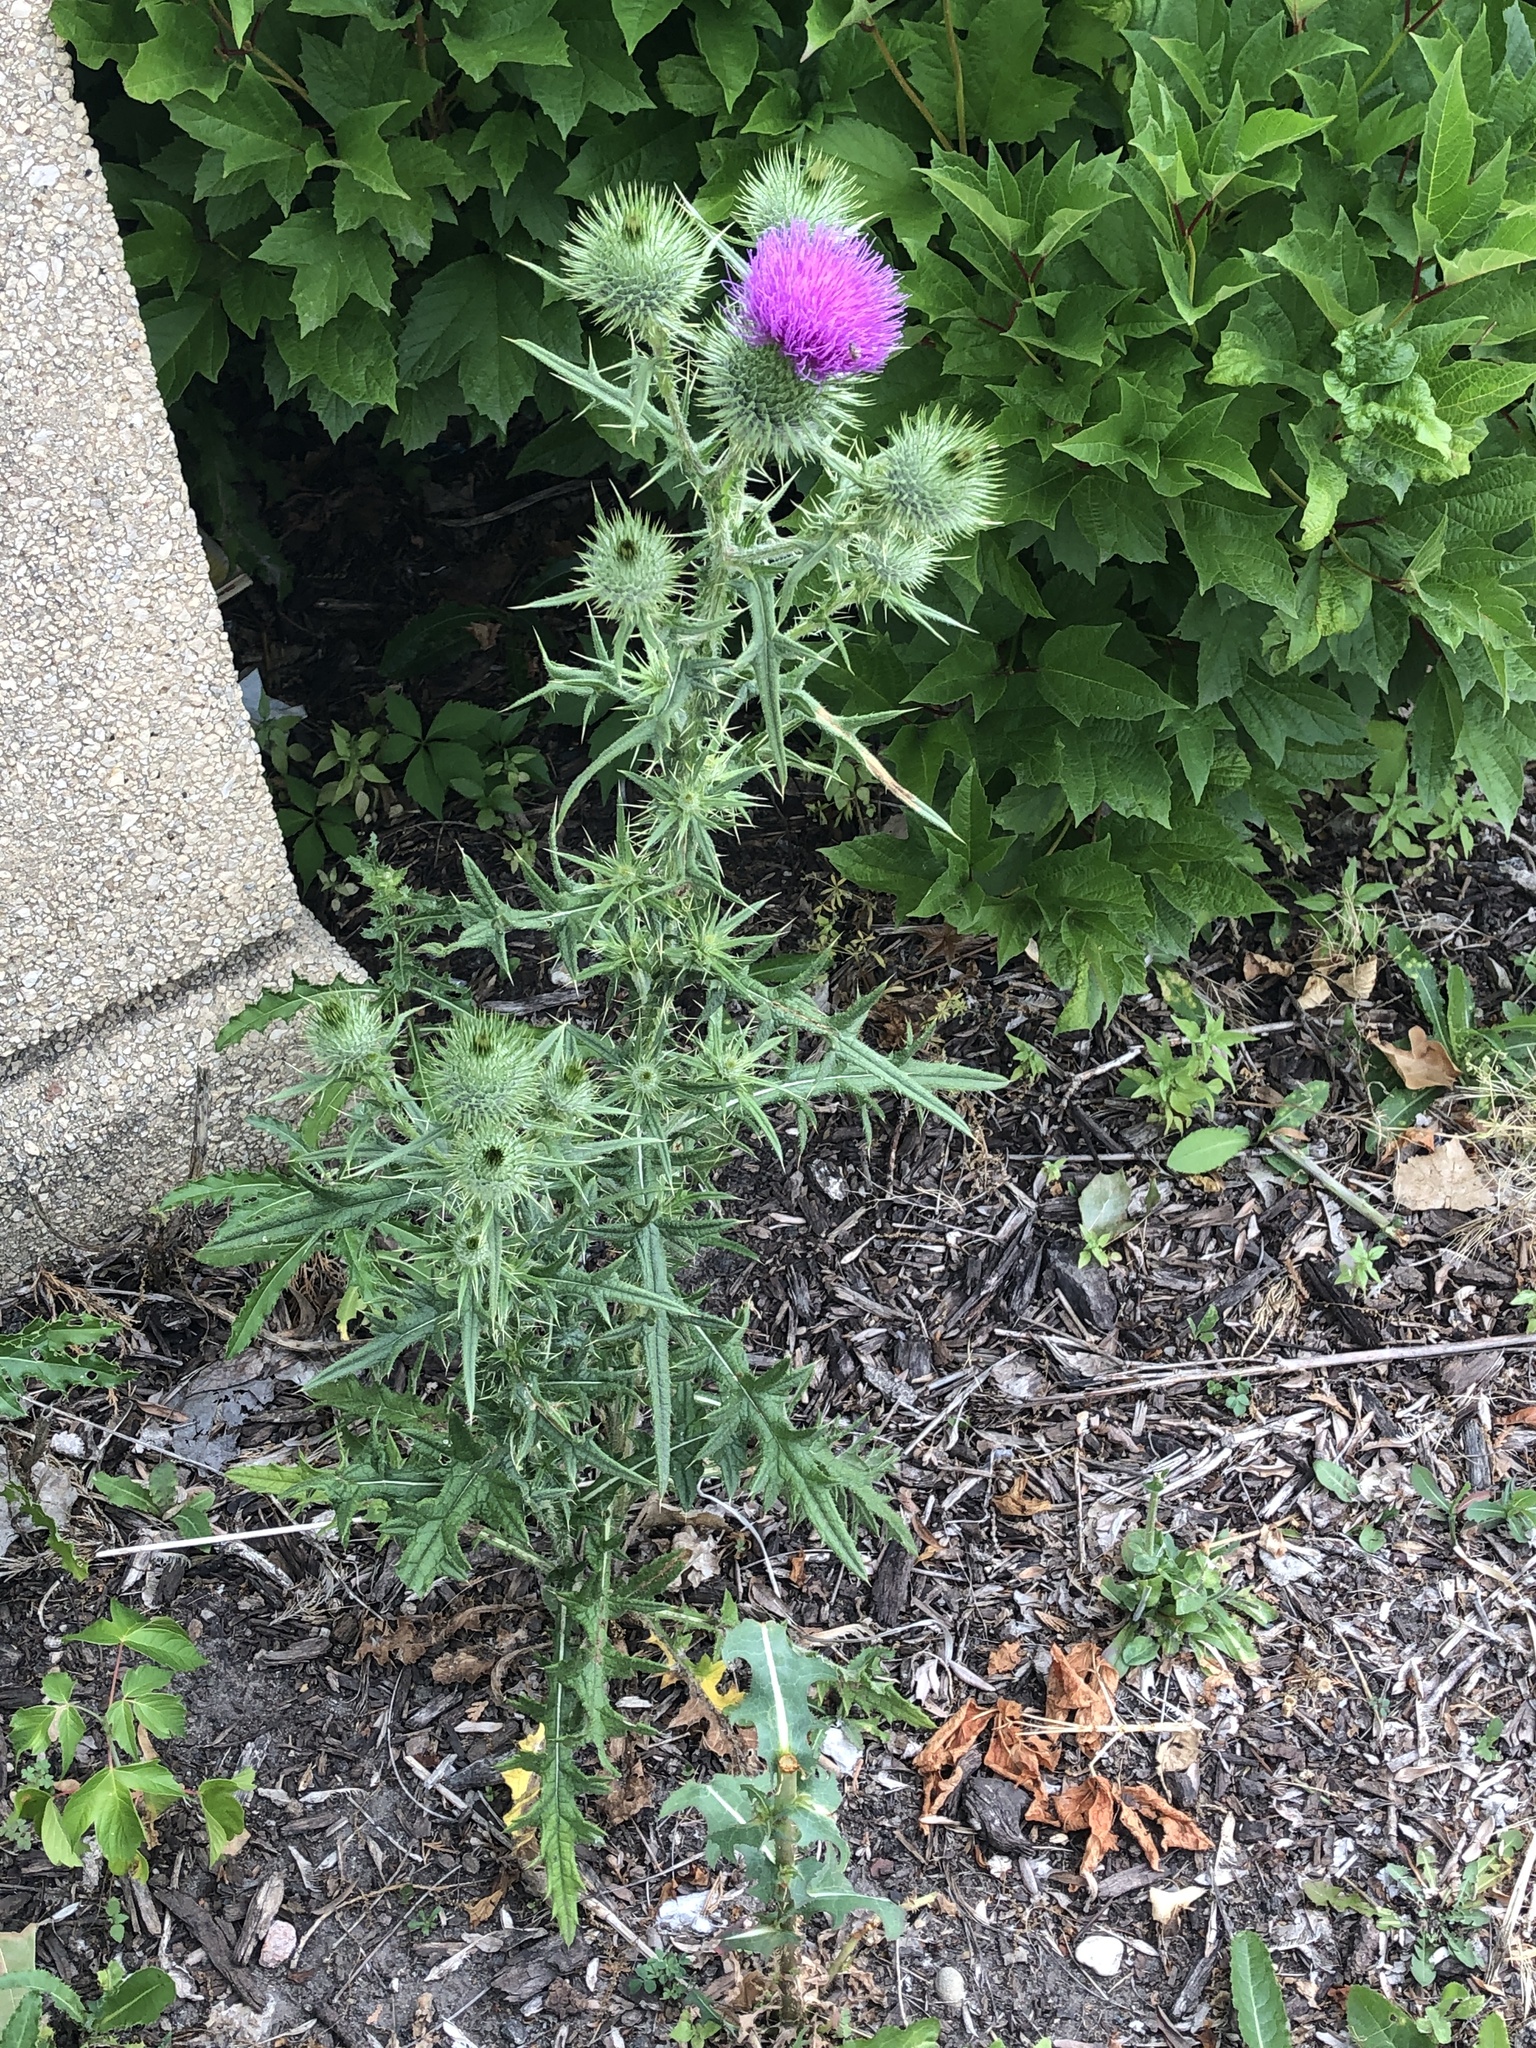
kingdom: Plantae
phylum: Tracheophyta
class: Magnoliopsida
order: Asterales
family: Asteraceae
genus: Cirsium
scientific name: Cirsium vulgare
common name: Bull thistle
